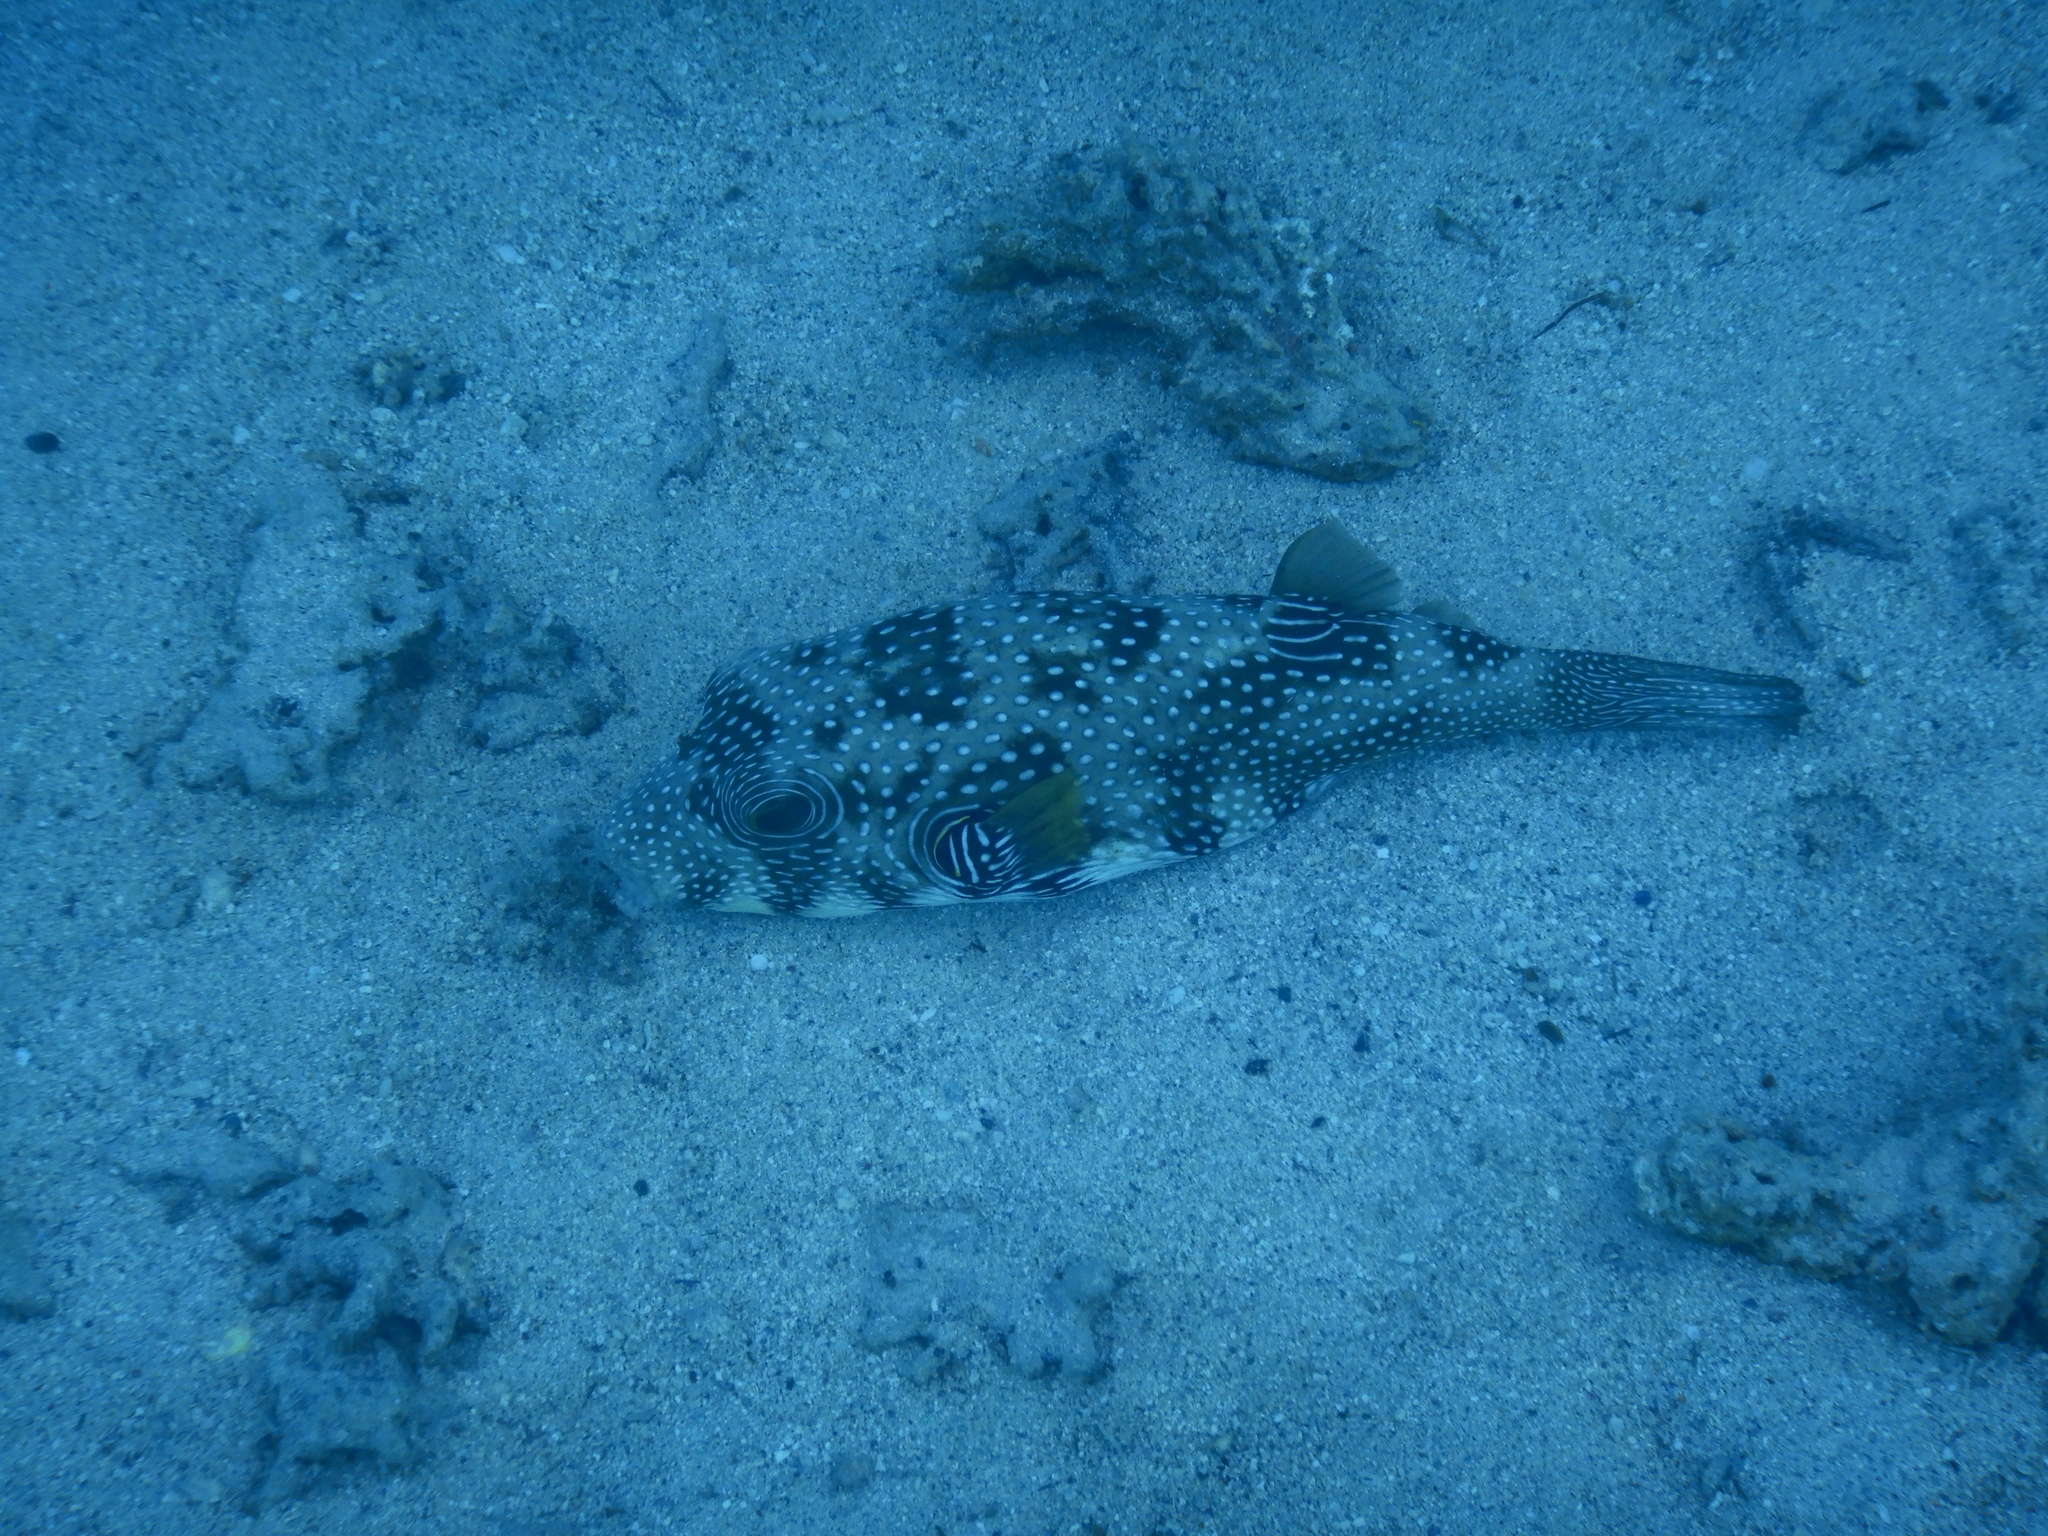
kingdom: Animalia
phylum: Chordata
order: Tetraodontiformes
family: Tetraodontidae
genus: Arothron
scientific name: Arothron hispidus
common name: Stripebelly puffer
